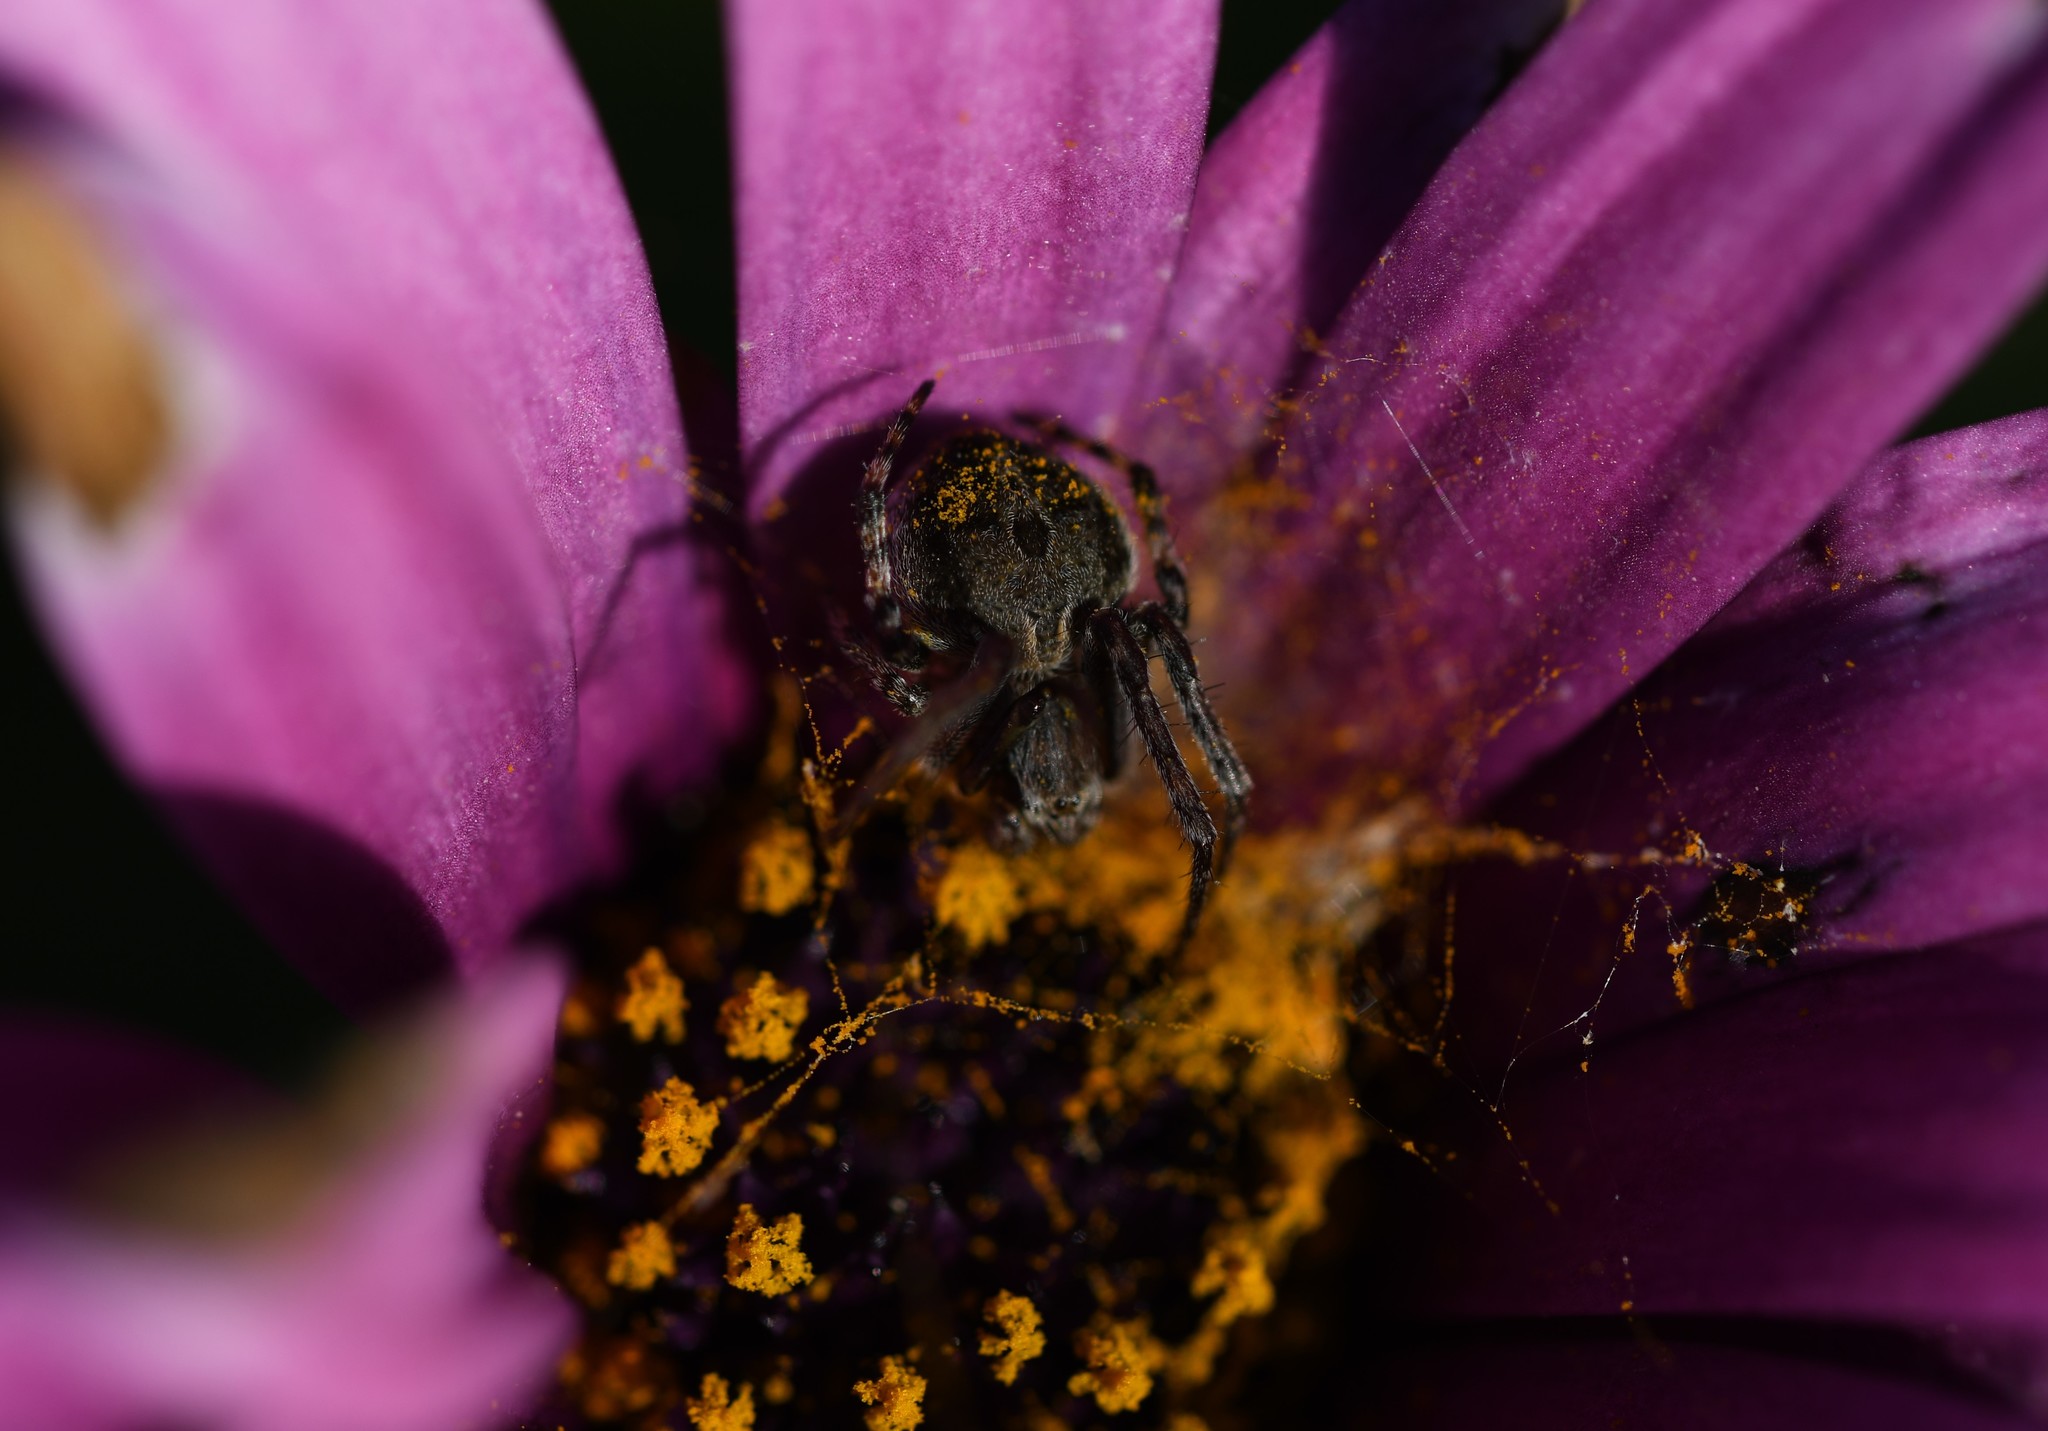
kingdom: Animalia
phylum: Arthropoda
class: Arachnida
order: Araneae
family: Araneidae
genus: Agalenatea
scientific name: Agalenatea redii
